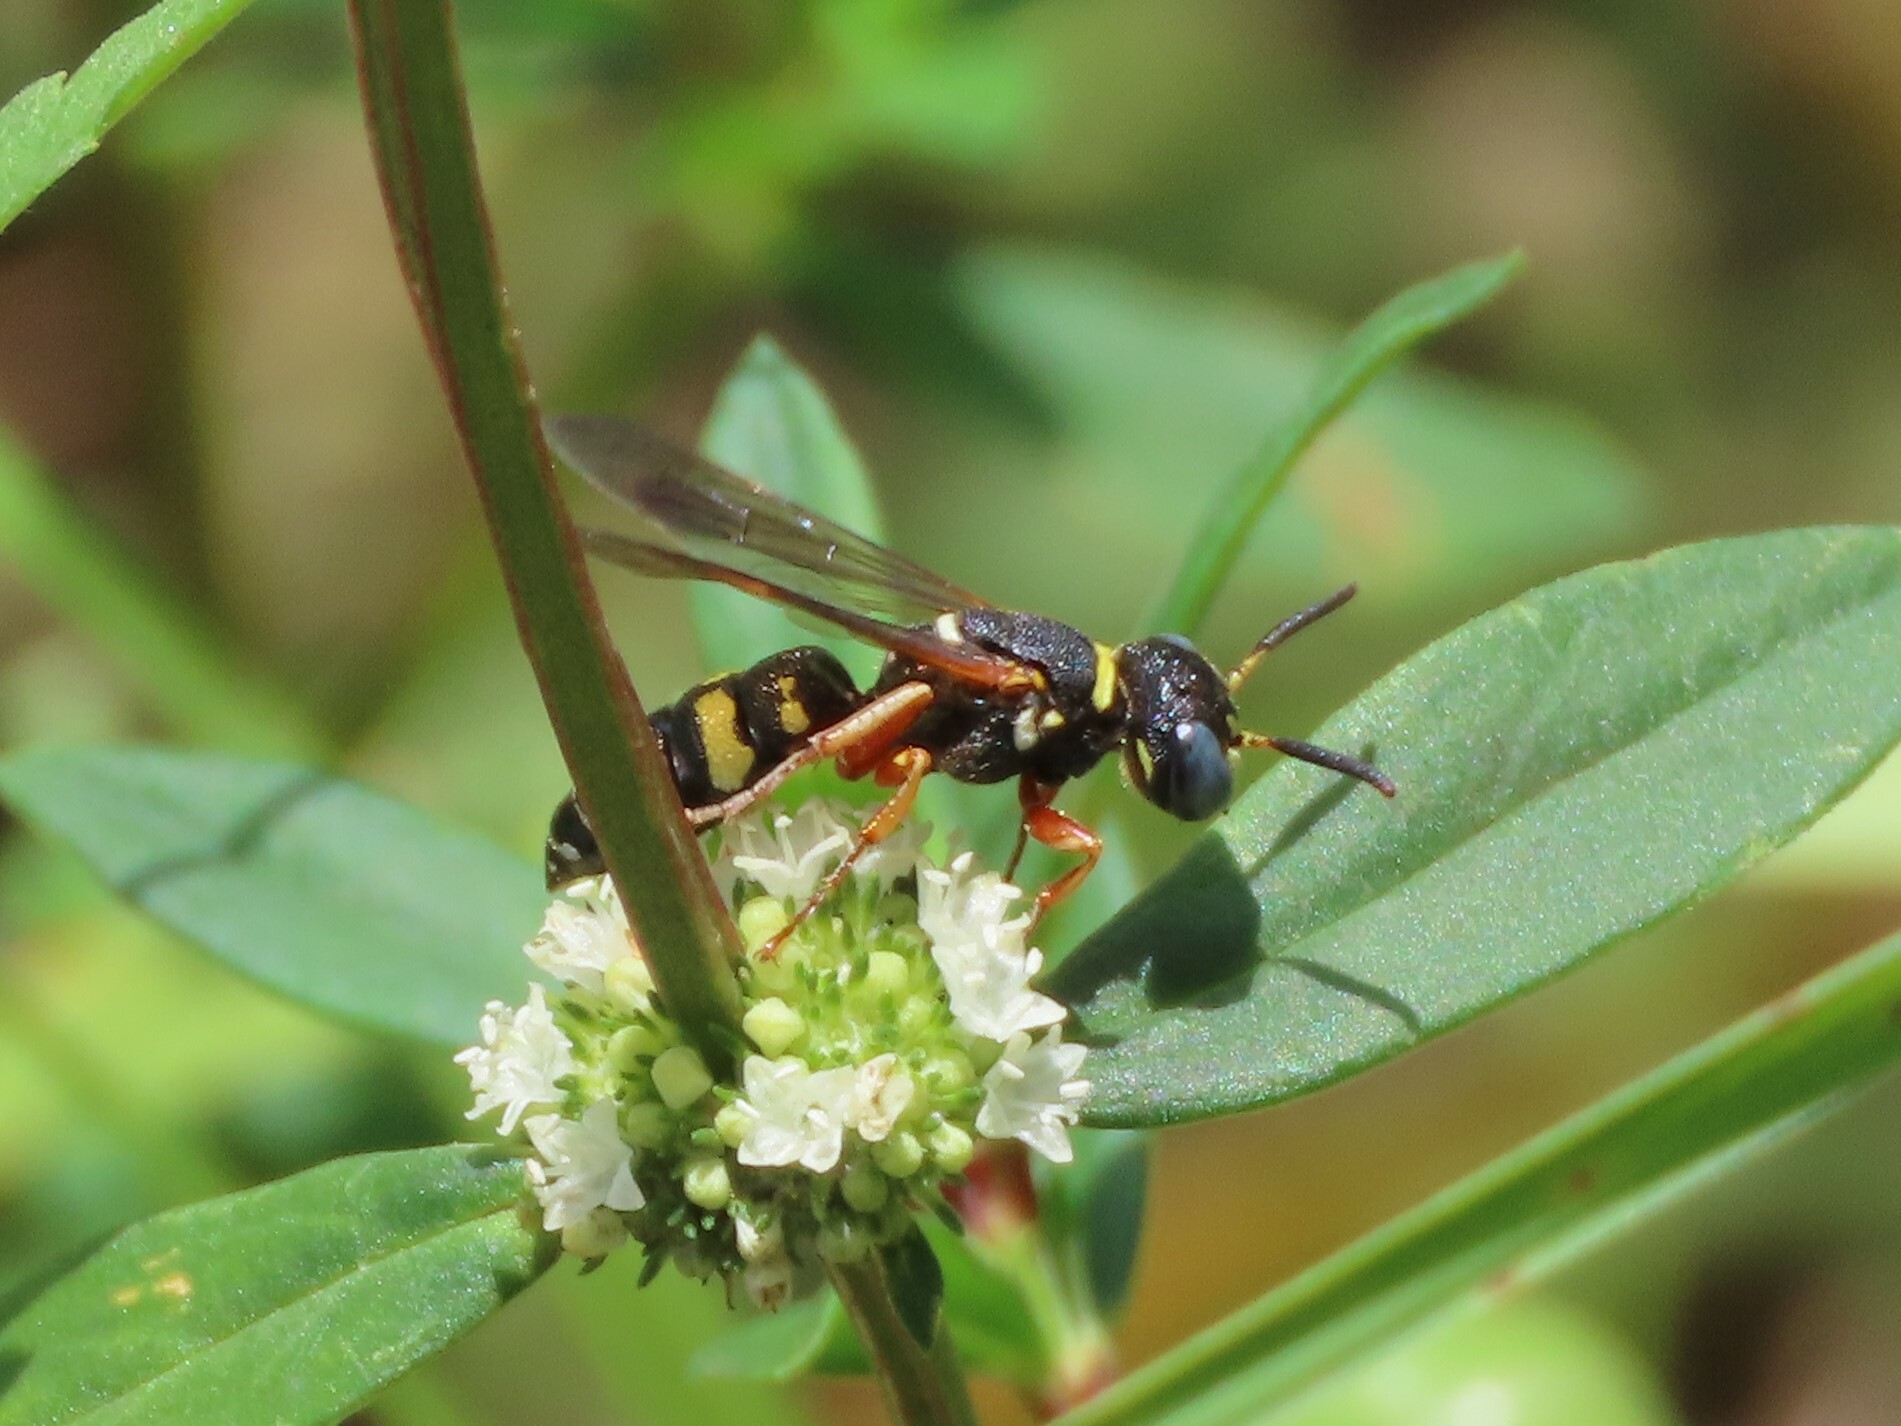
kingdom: Animalia
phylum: Arthropoda
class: Insecta
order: Hymenoptera
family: Crabronidae
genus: Philanthus
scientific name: Philanthus ventilabris
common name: Bee-killer wasp
